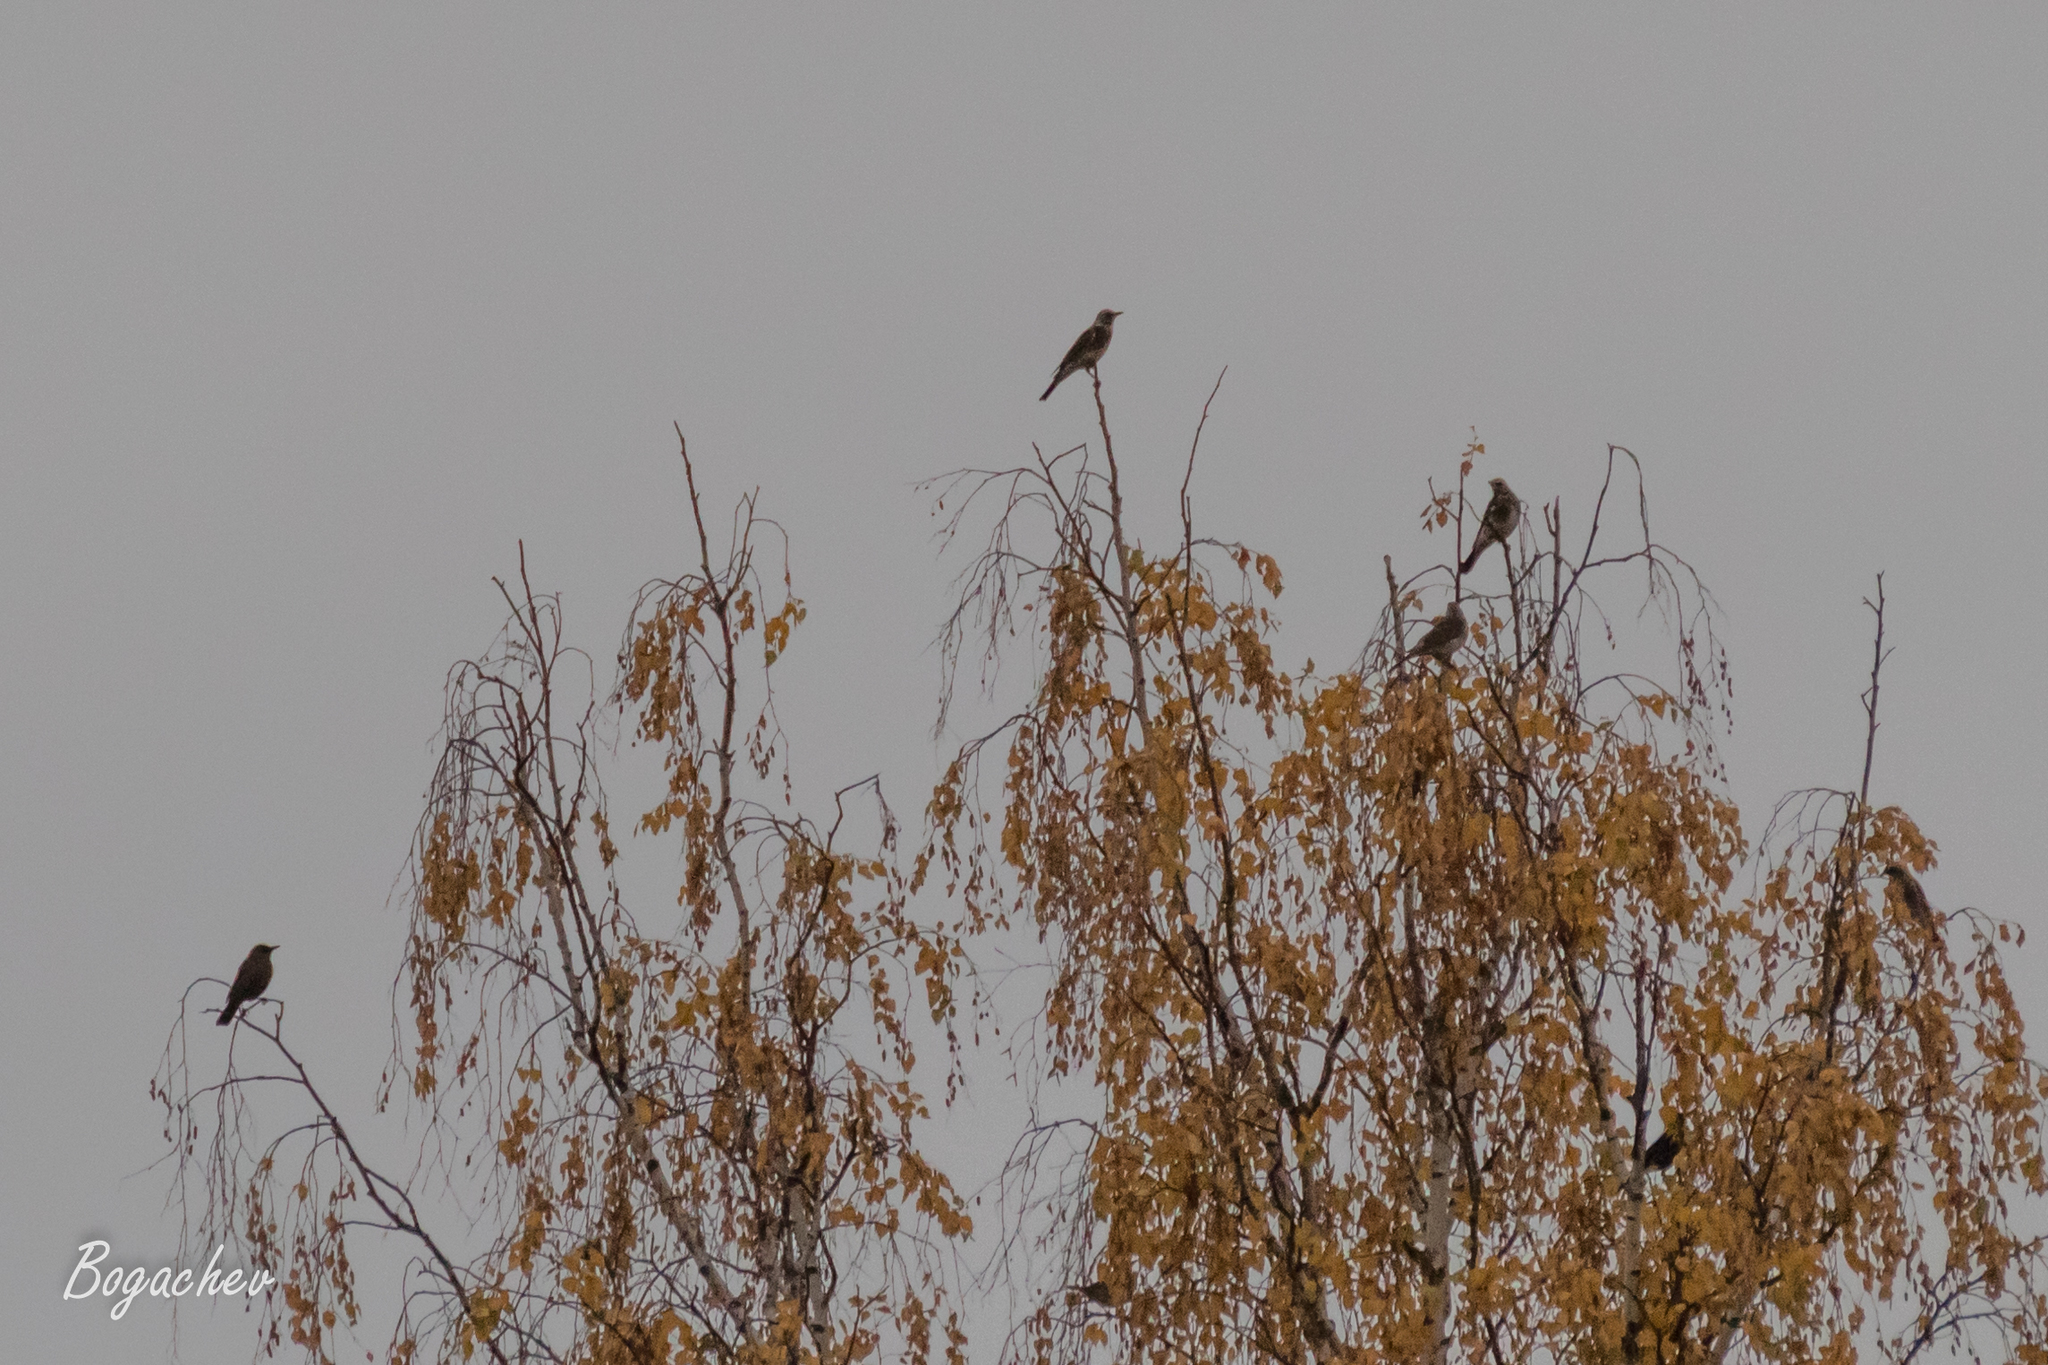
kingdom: Animalia
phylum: Chordata
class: Aves
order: Passeriformes
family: Turdidae
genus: Turdus
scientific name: Turdus pilaris
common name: Fieldfare
